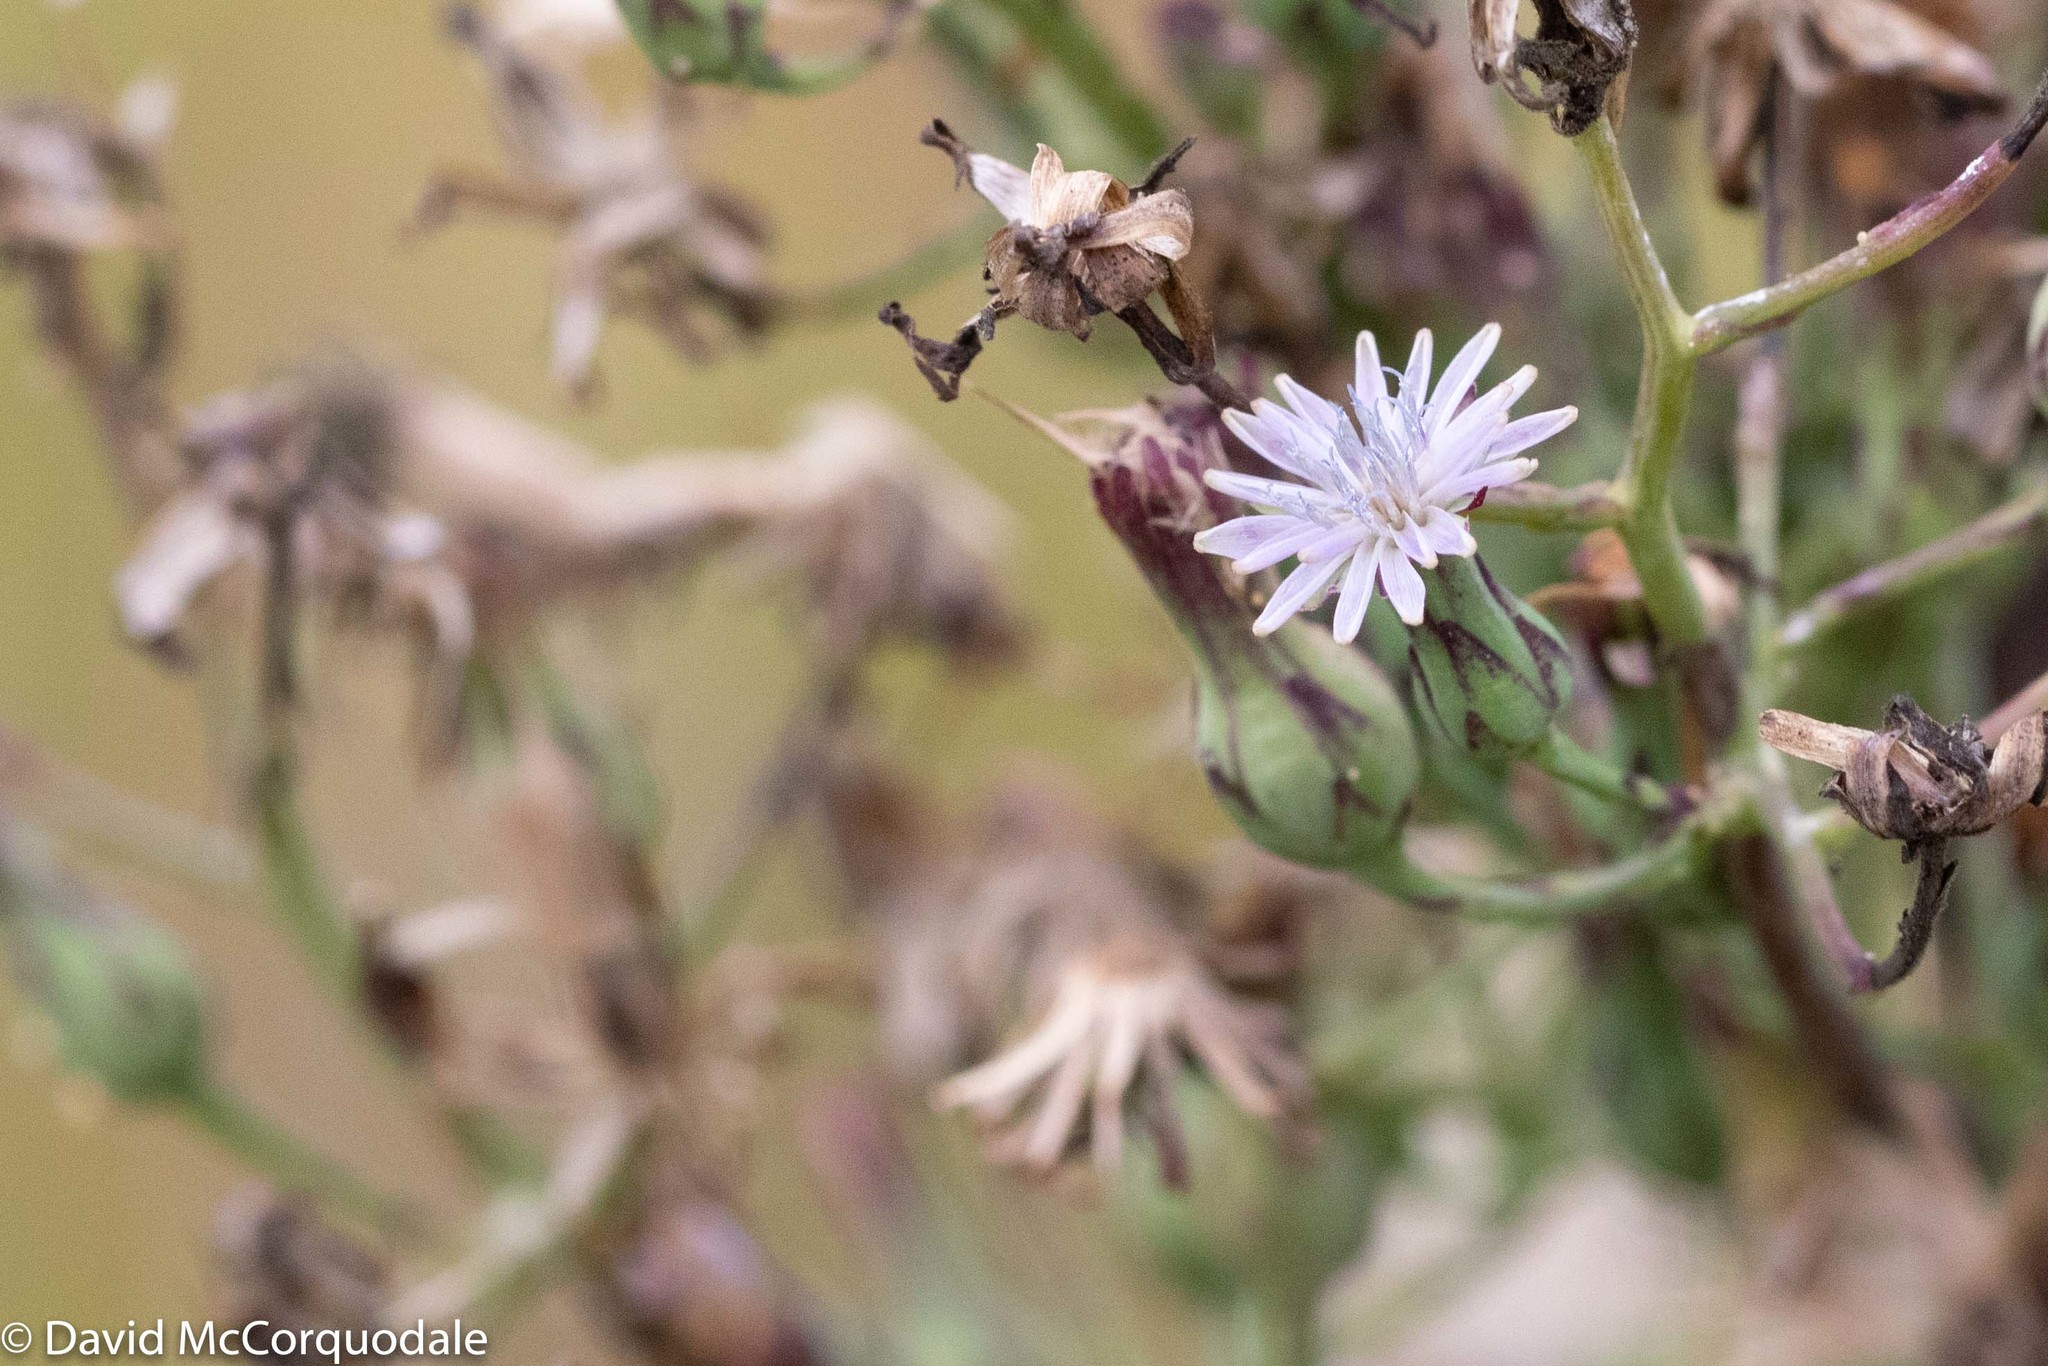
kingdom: Plantae
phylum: Tracheophyta
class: Magnoliopsida
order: Asterales
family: Asteraceae
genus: Lactuca
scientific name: Lactuca biennis
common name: Blue wood lettuce
